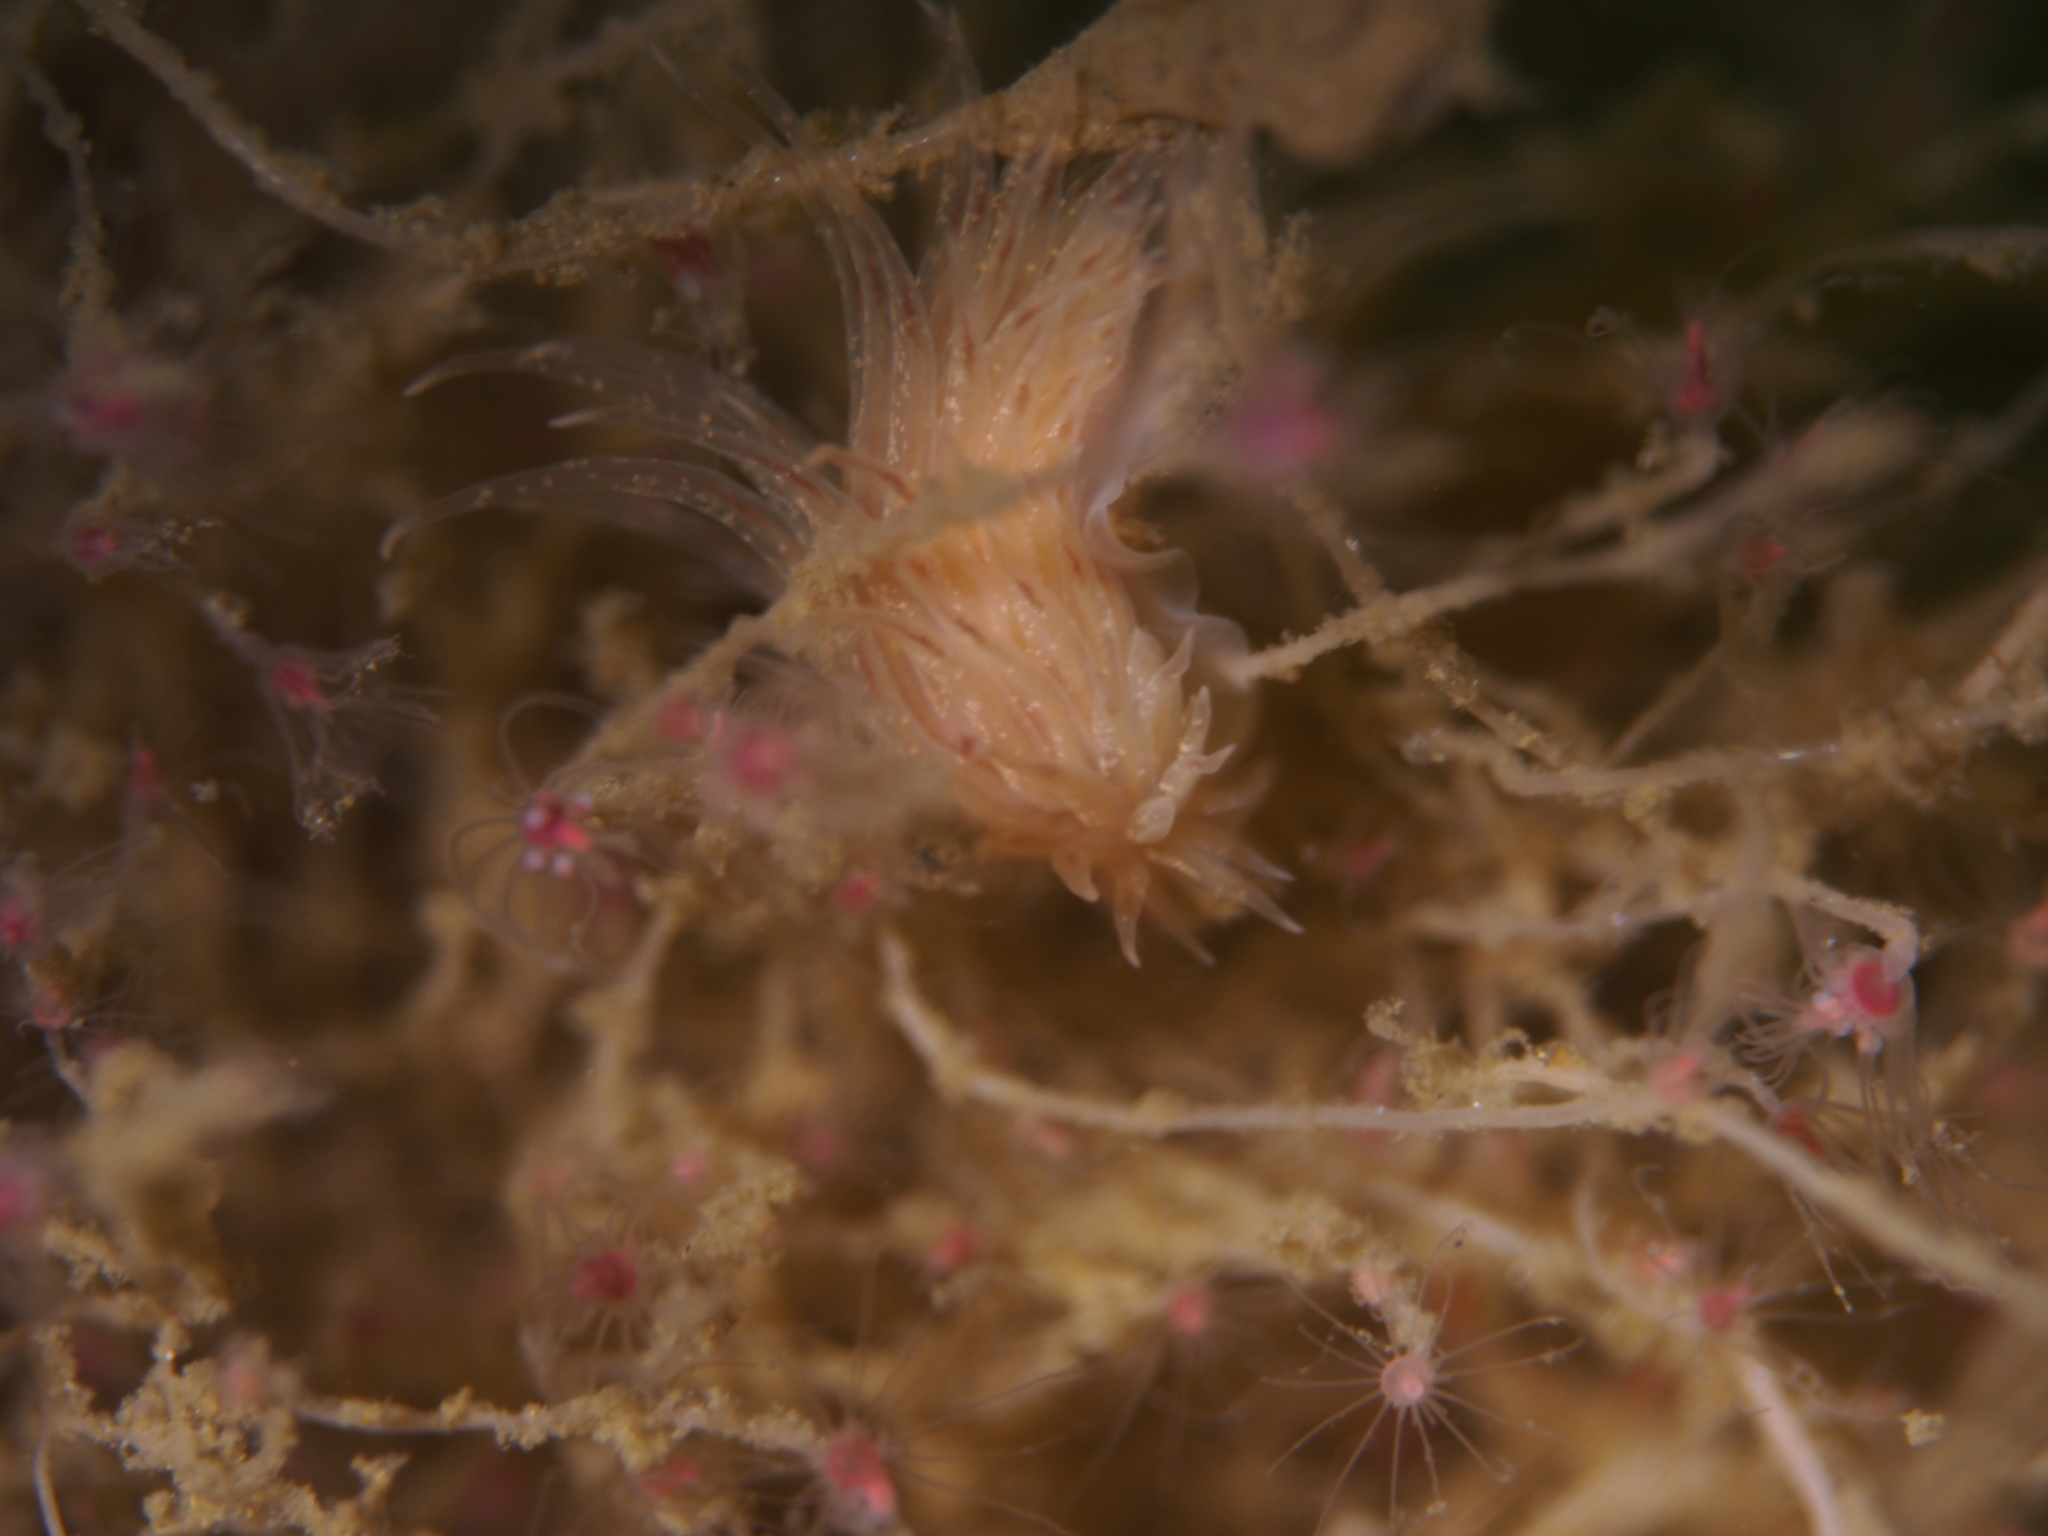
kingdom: Animalia
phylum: Mollusca
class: Gastropoda
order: Nudibranchia
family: Cumanotidae
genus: Cumanotus
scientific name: Cumanotus beaumonti
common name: Polyp aeolis
